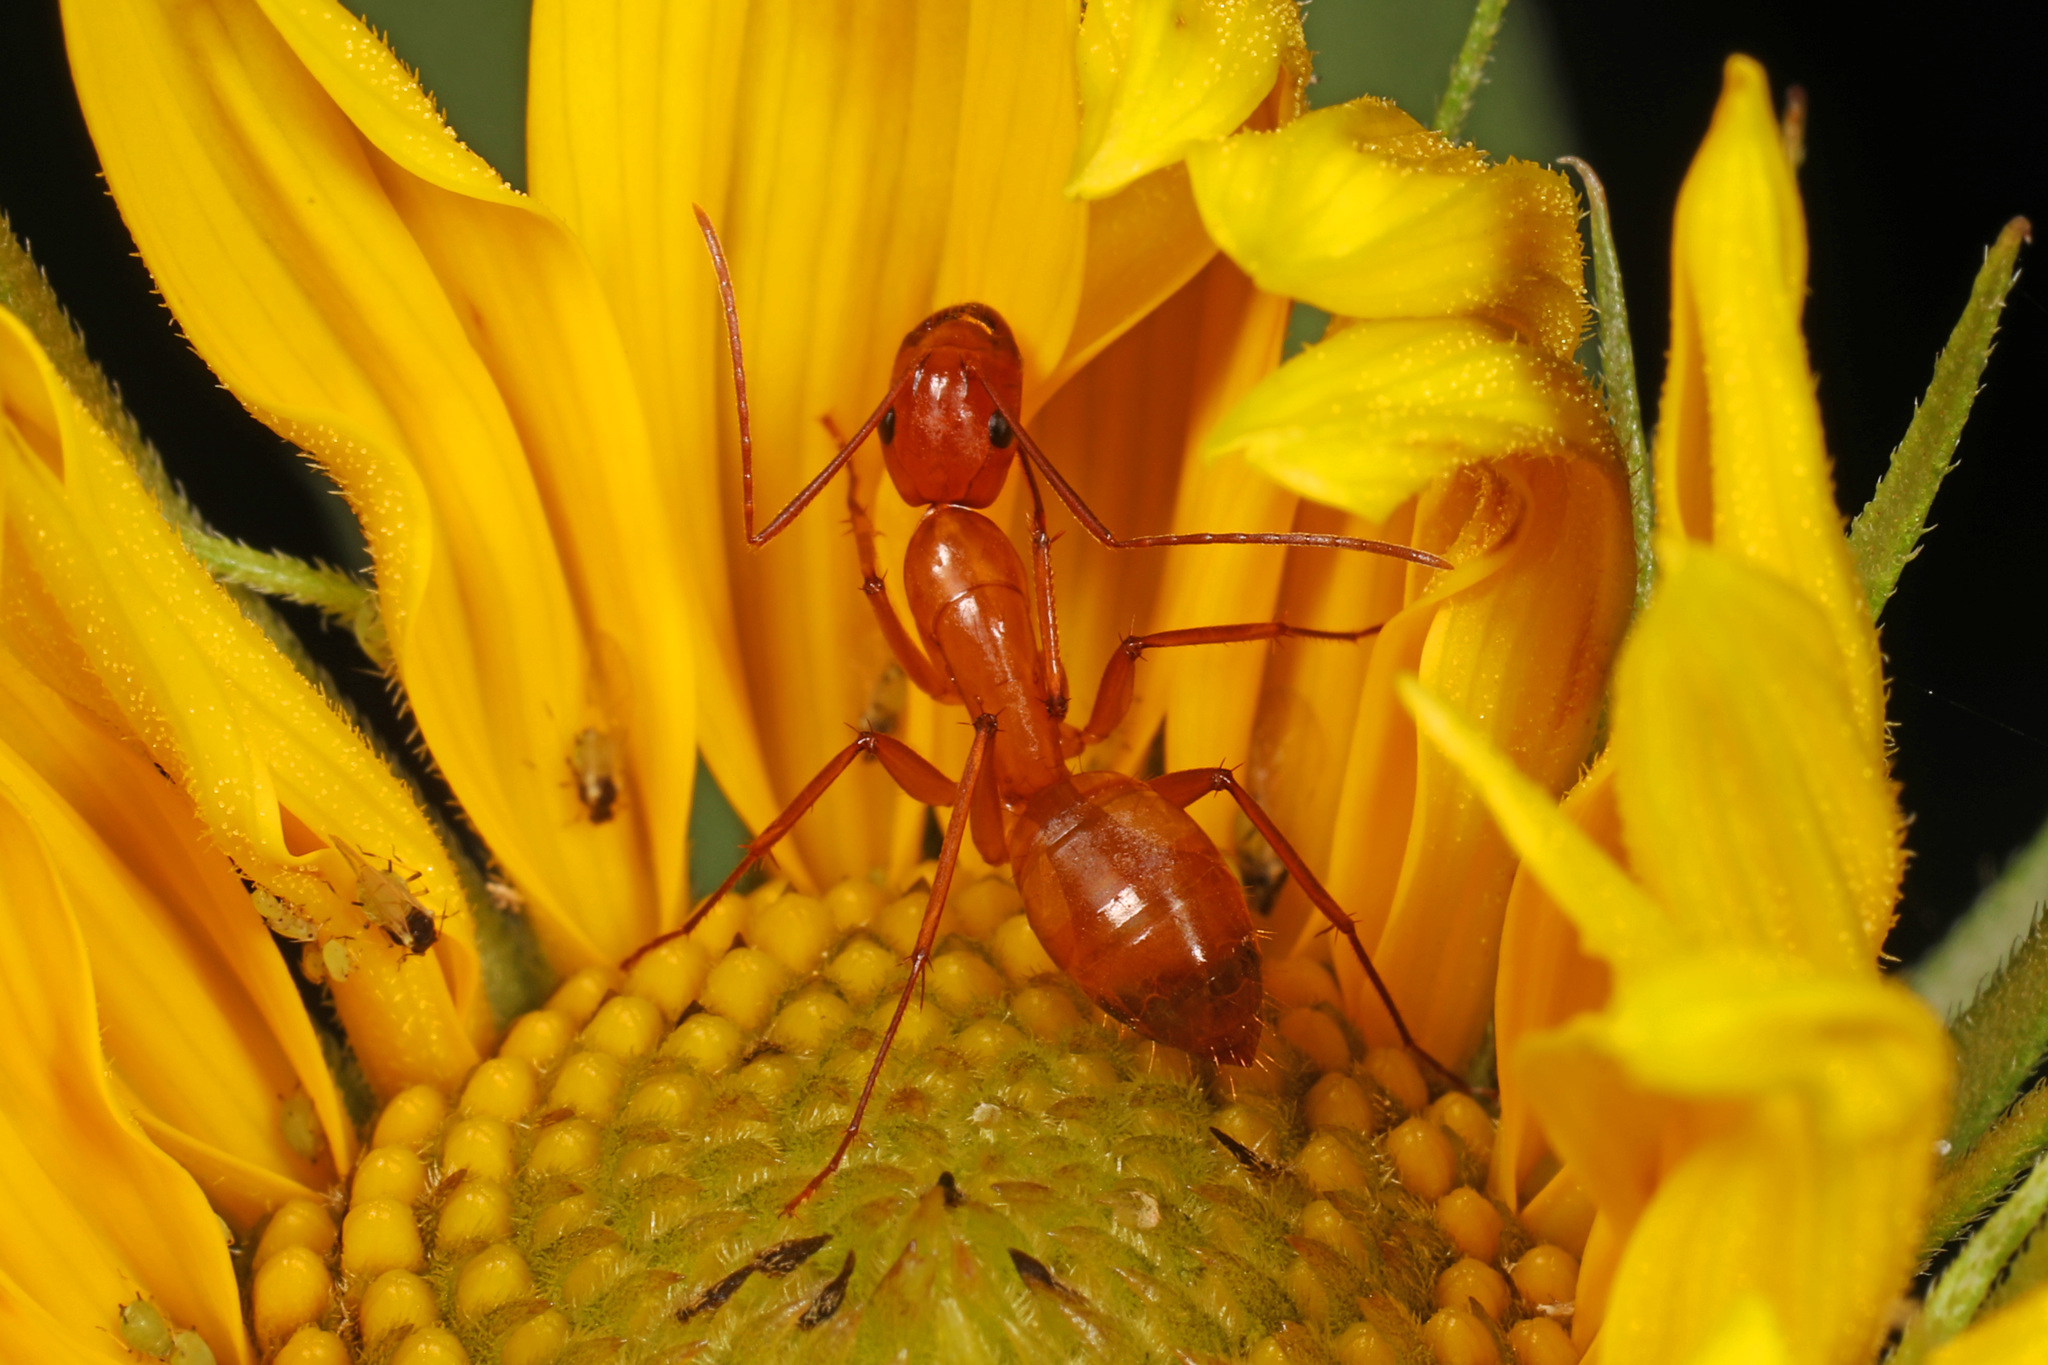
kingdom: Animalia
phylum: Arthropoda
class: Insecta
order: Hymenoptera
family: Formicidae
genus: Camponotus
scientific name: Camponotus castaneus
